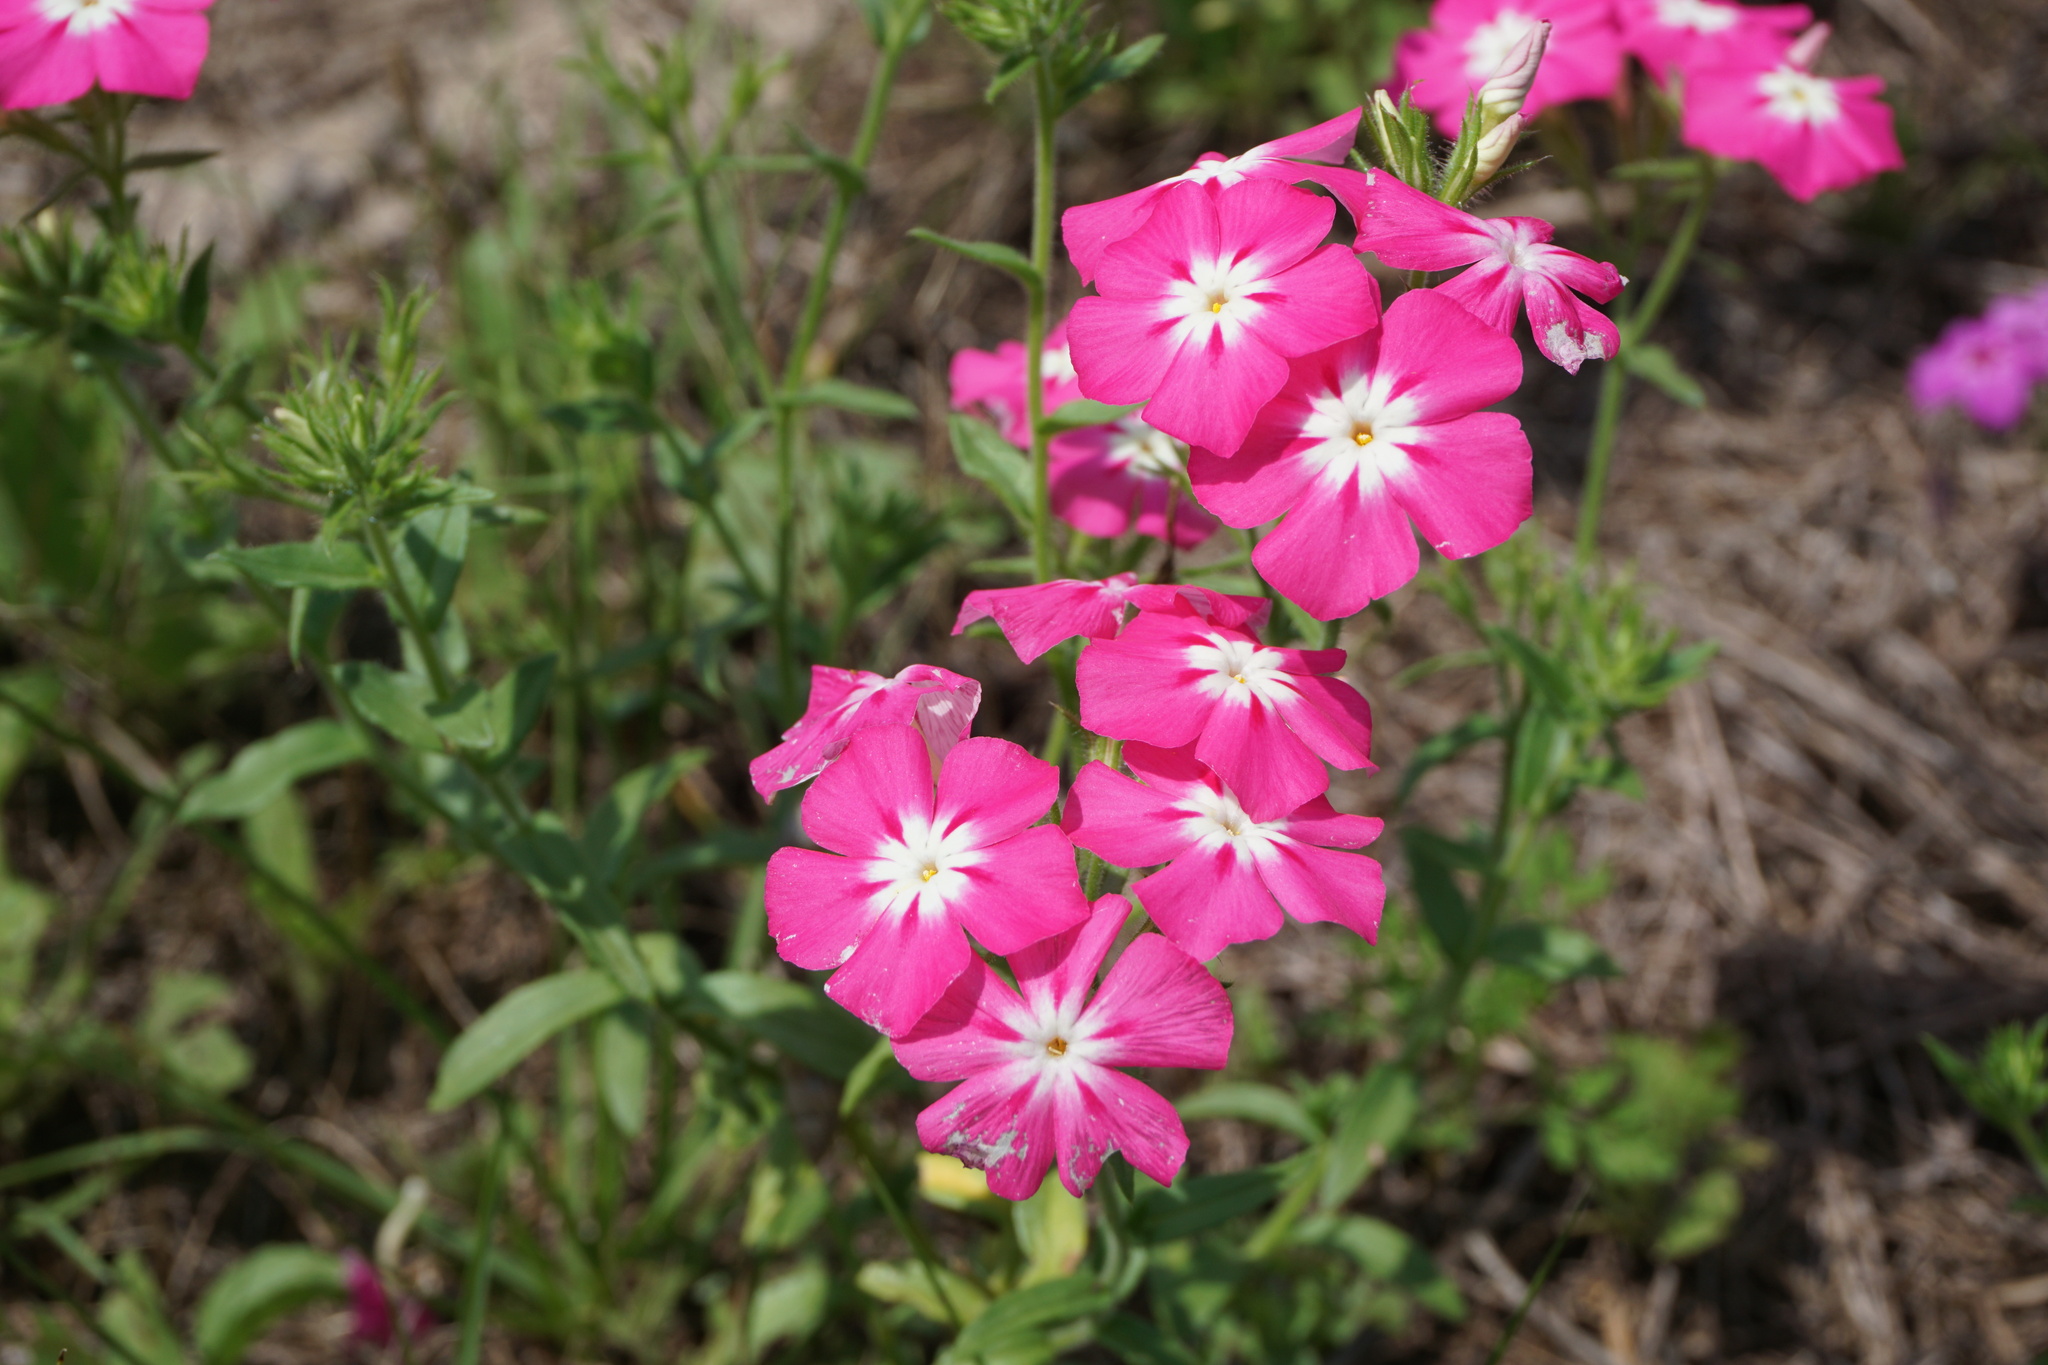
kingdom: Plantae
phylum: Tracheophyta
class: Magnoliopsida
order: Ericales
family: Polemoniaceae
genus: Phlox
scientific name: Phlox drummondii
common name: Drummond's phlox
